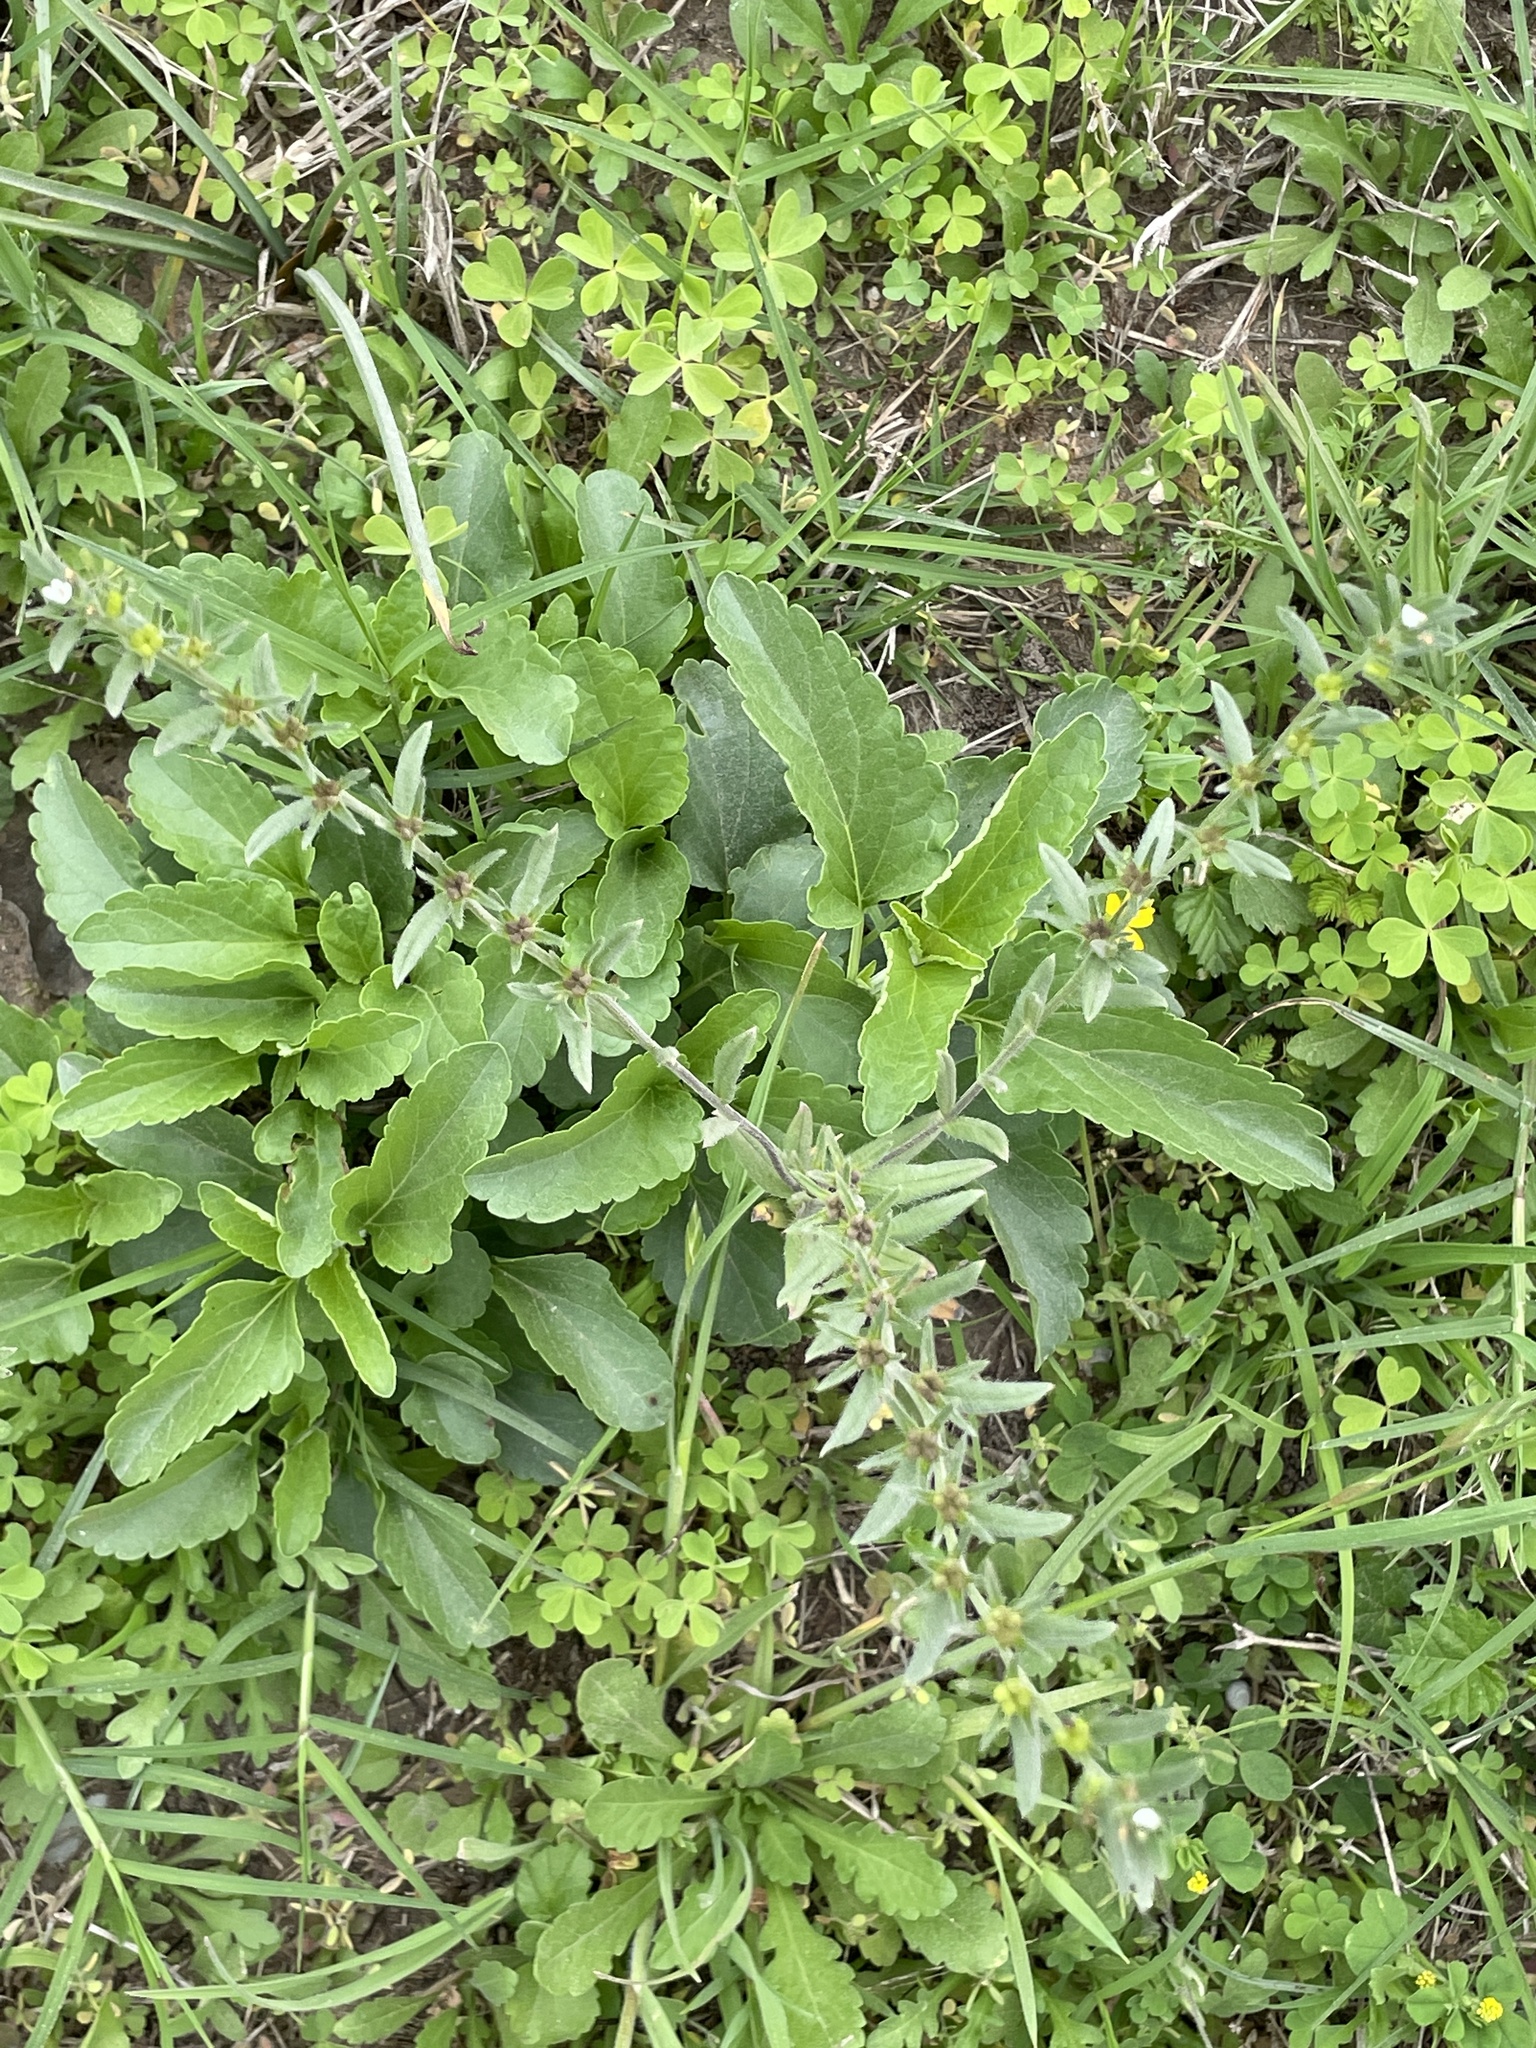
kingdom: Plantae
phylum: Tracheophyta
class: Magnoliopsida
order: Boraginales
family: Boraginaceae
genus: Buglossoides
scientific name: Buglossoides arvensis
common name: Corn gromwell
